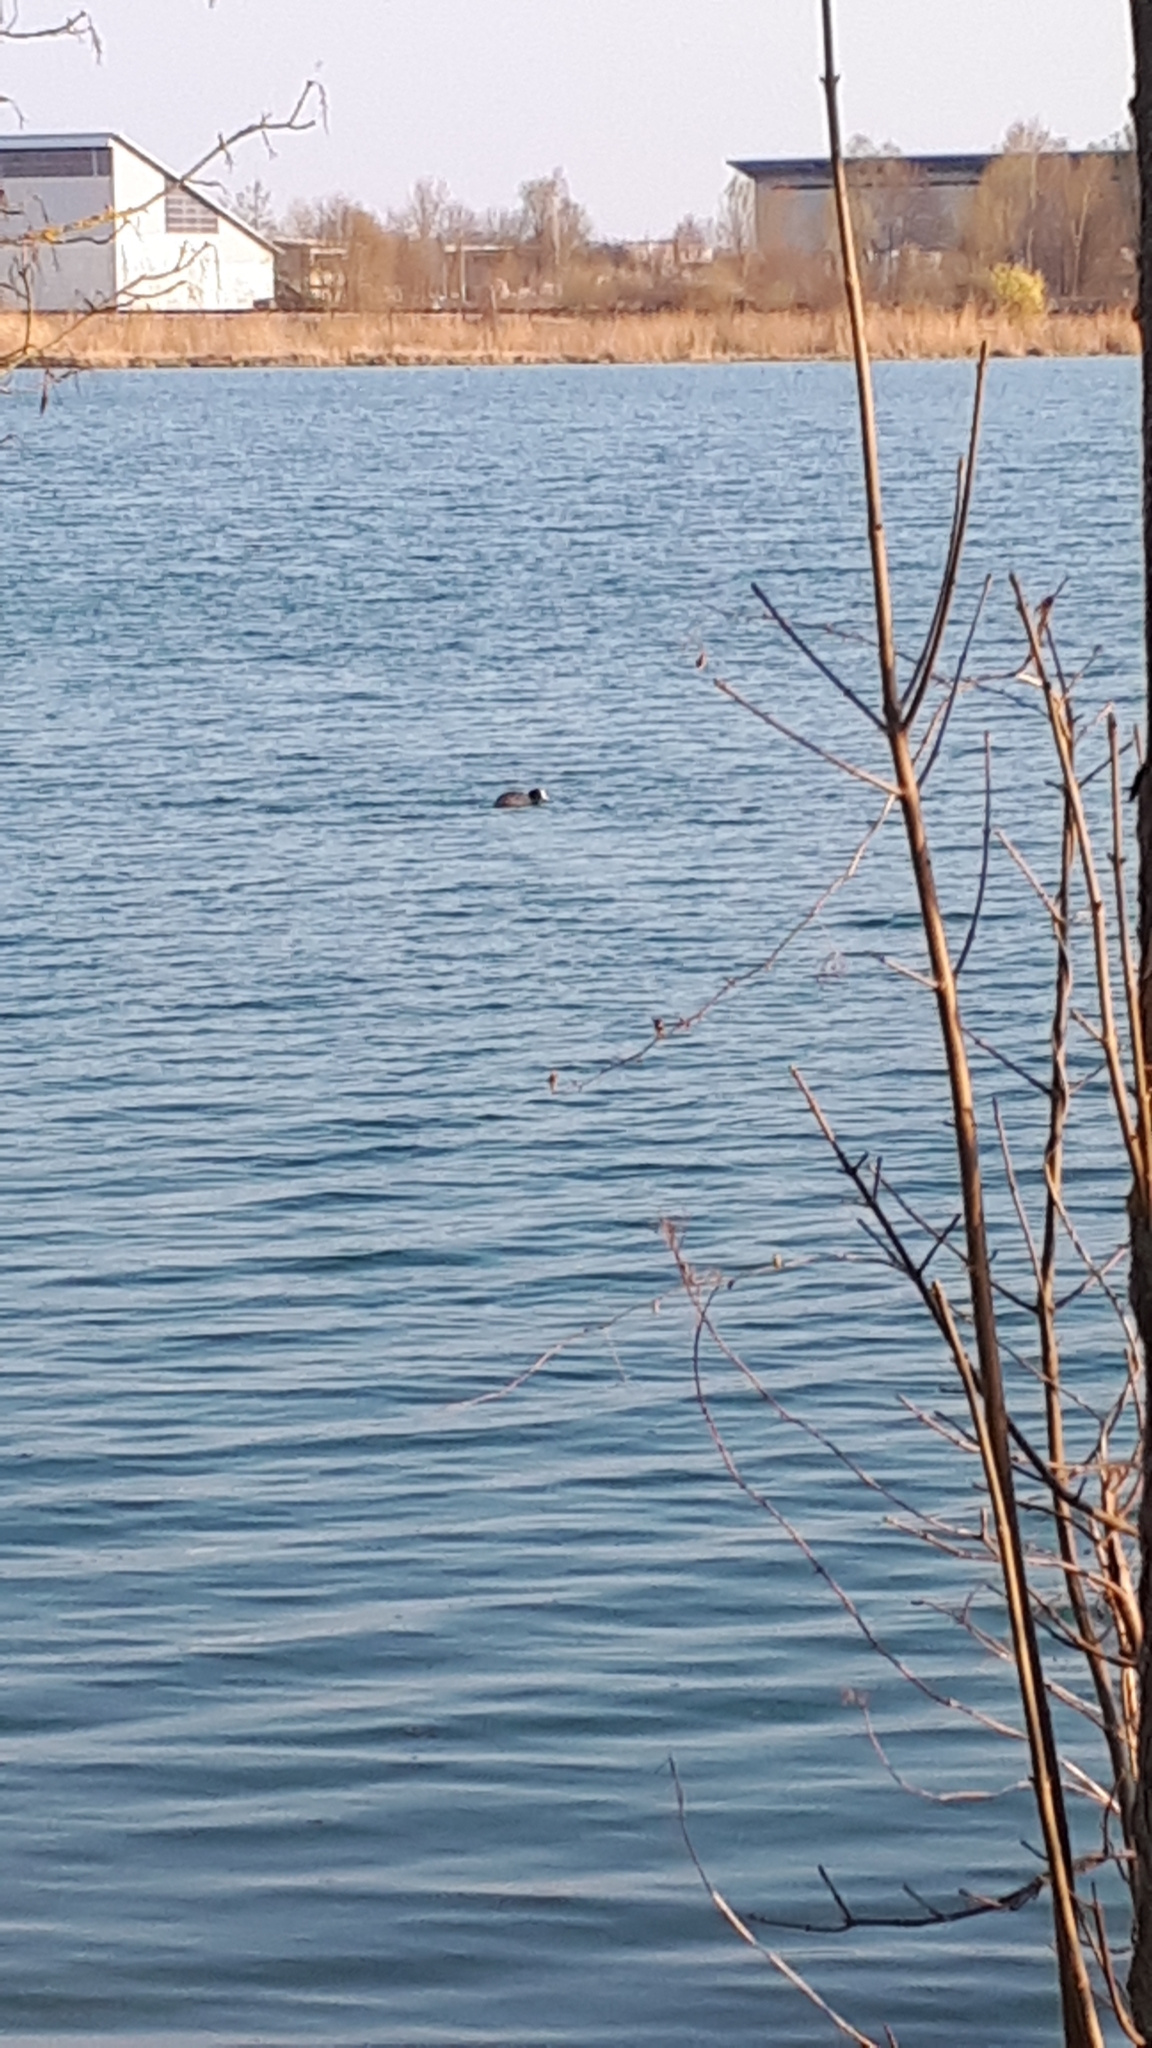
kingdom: Animalia
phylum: Chordata
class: Aves
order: Gruiformes
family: Rallidae
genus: Fulica
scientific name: Fulica atra
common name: Eurasian coot
